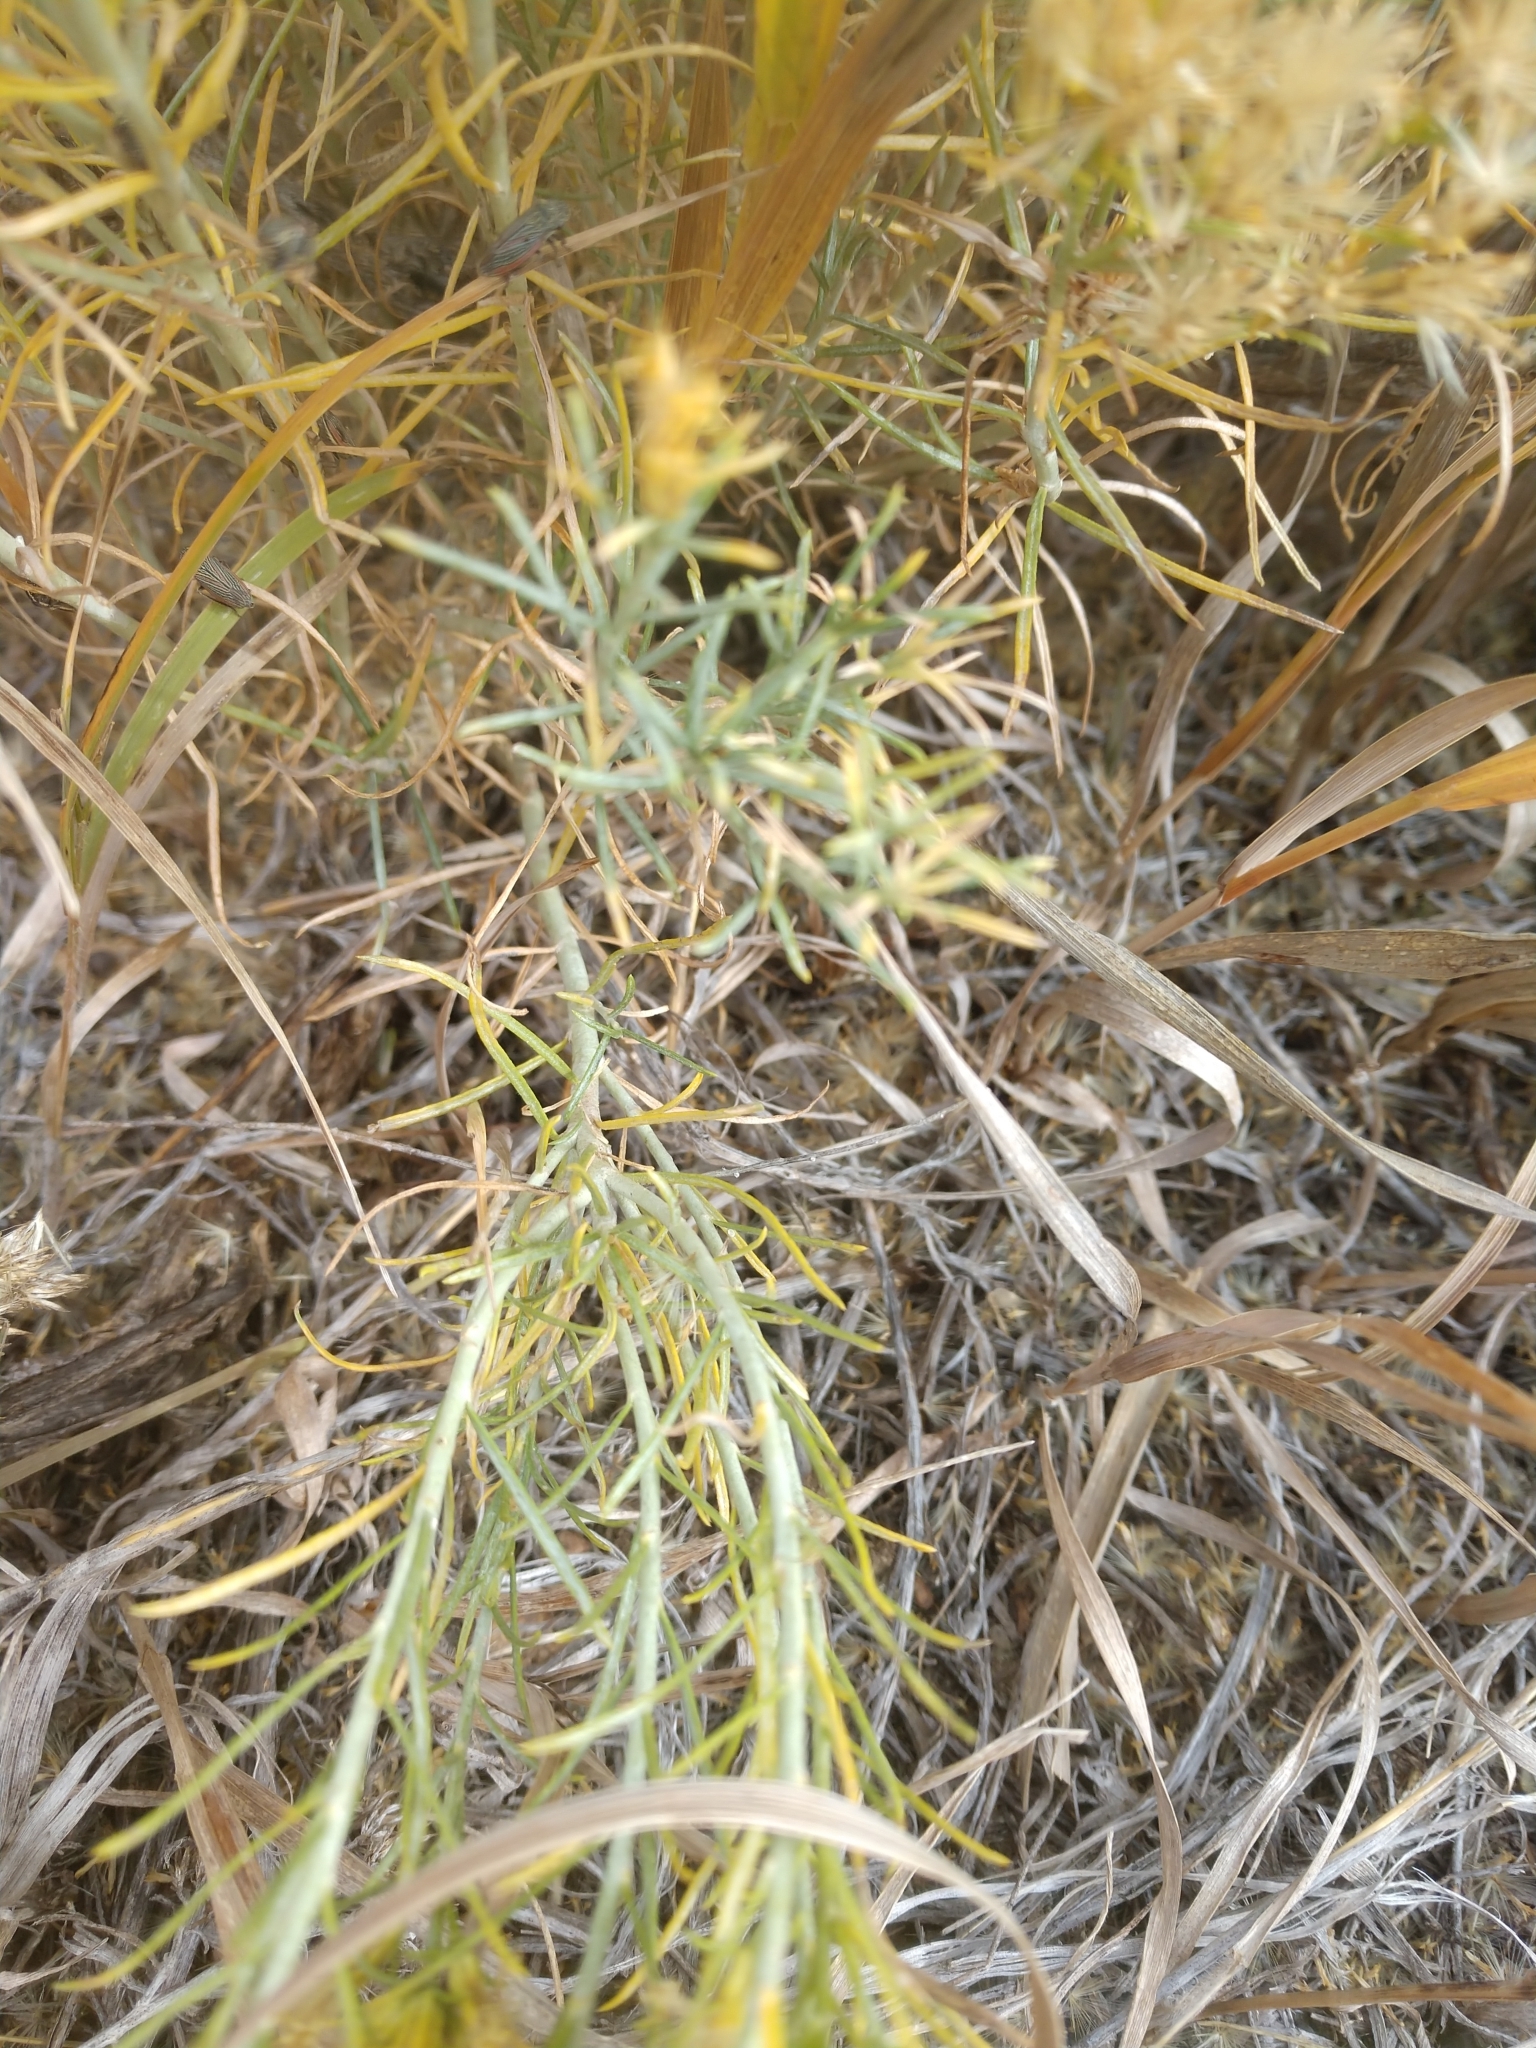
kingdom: Plantae
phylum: Tracheophyta
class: Magnoliopsida
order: Asterales
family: Asteraceae
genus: Ericameria
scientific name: Ericameria nauseosa
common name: Rubber rabbitbrush
